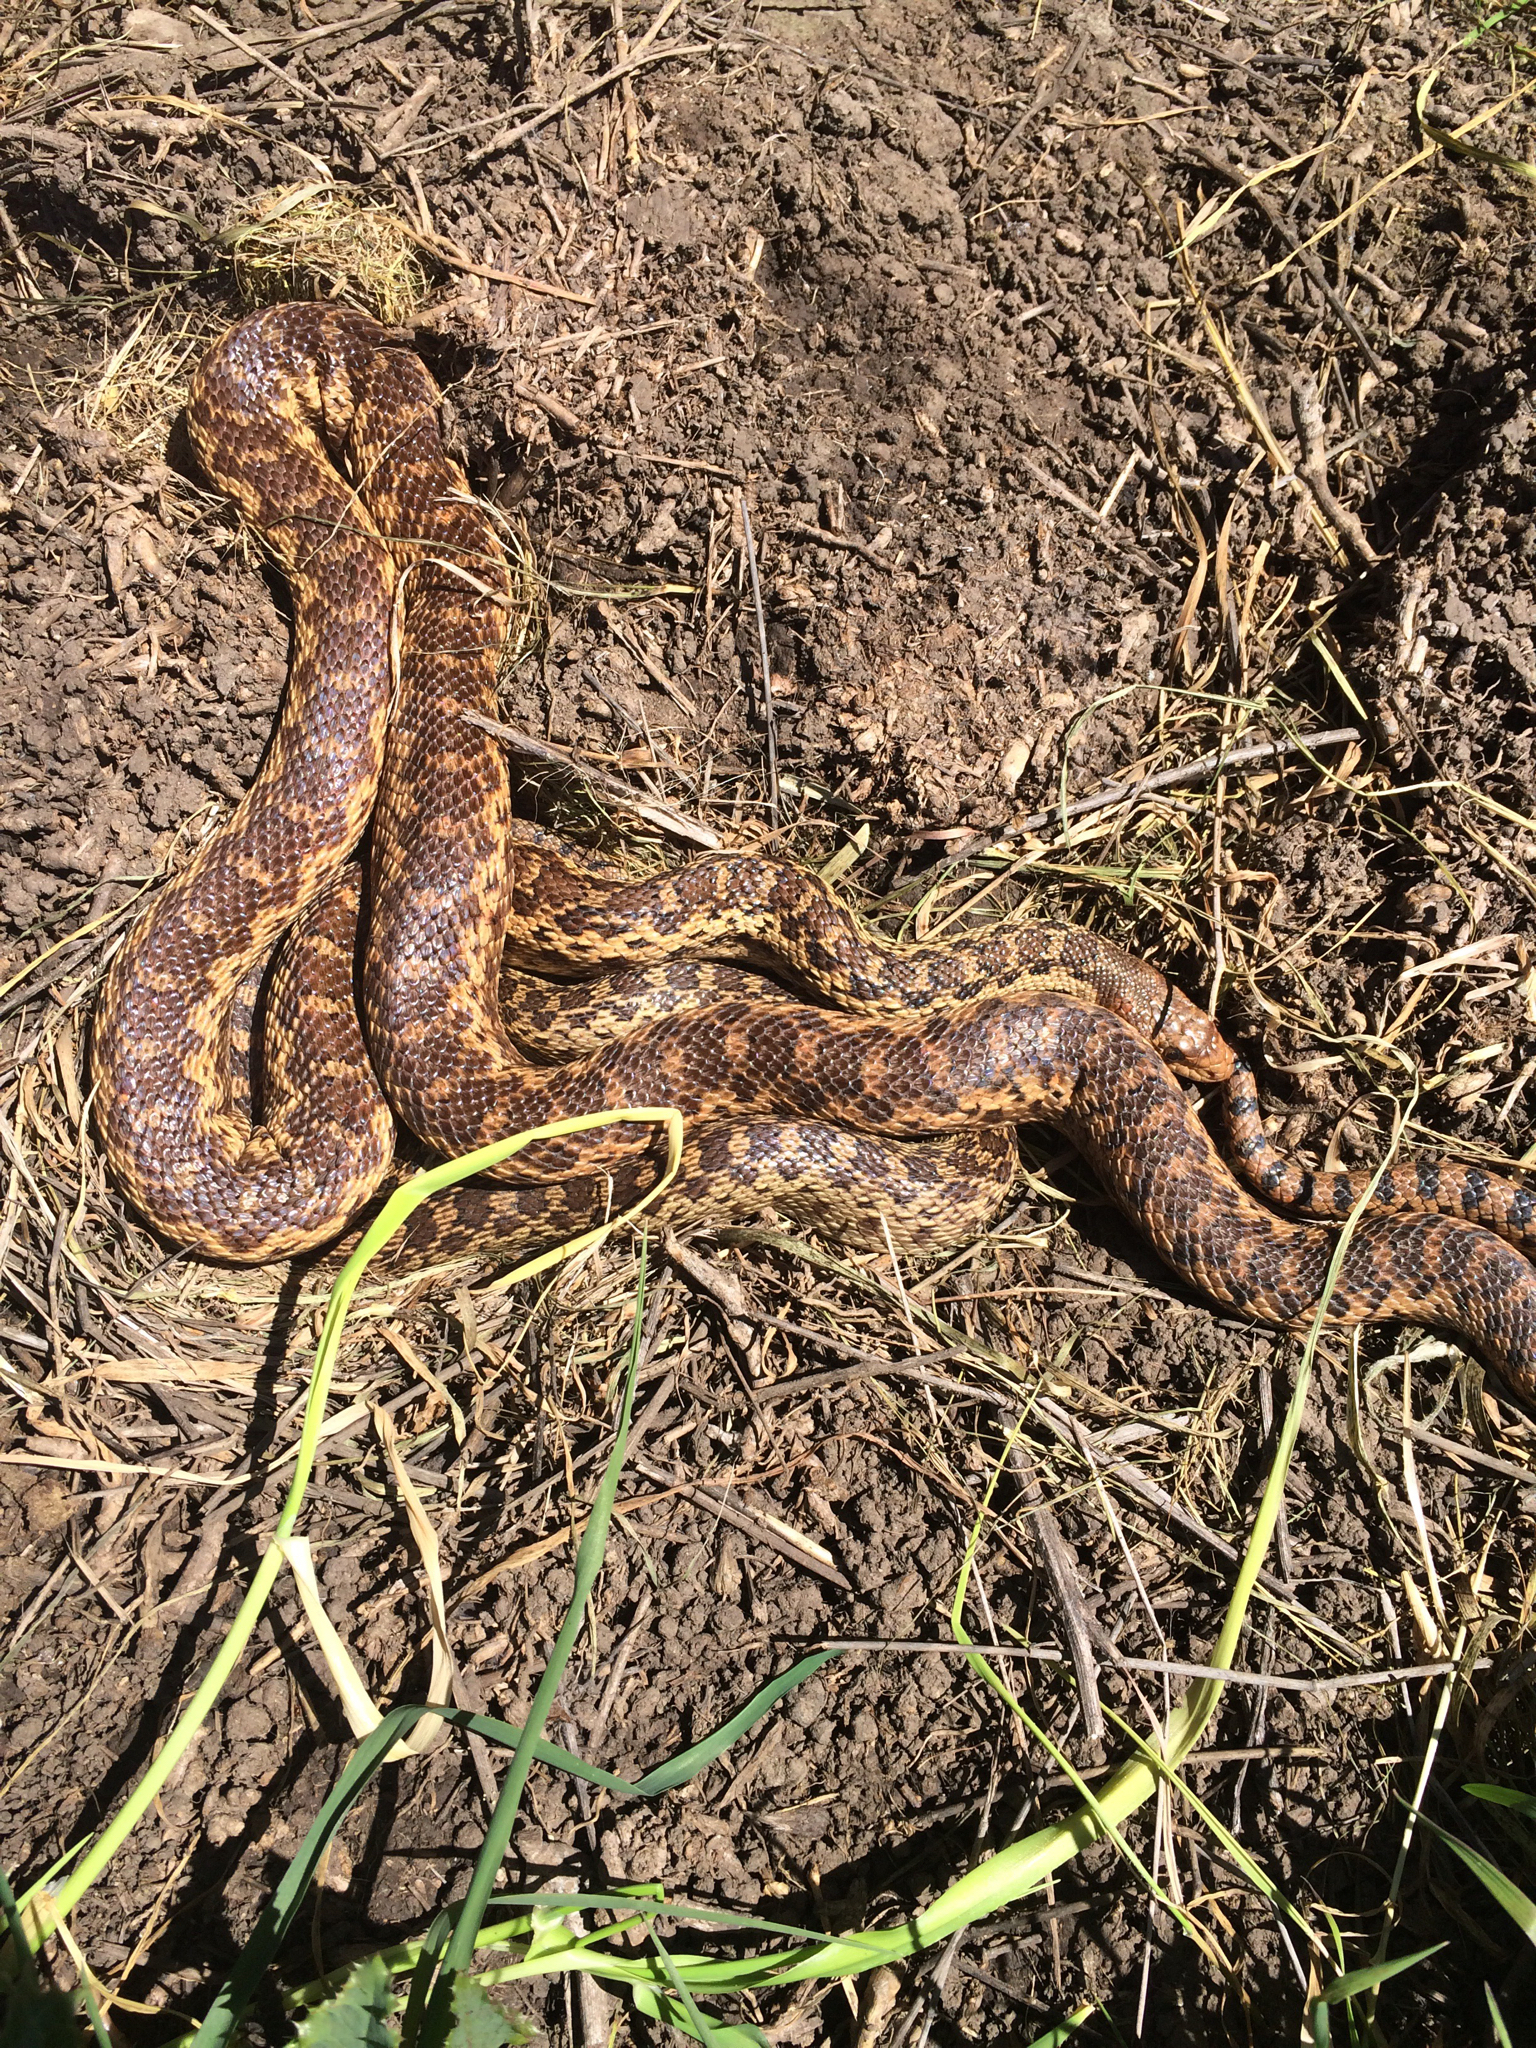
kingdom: Animalia
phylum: Chordata
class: Squamata
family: Colubridae
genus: Pituophis
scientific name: Pituophis catenifer
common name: Gopher snake
